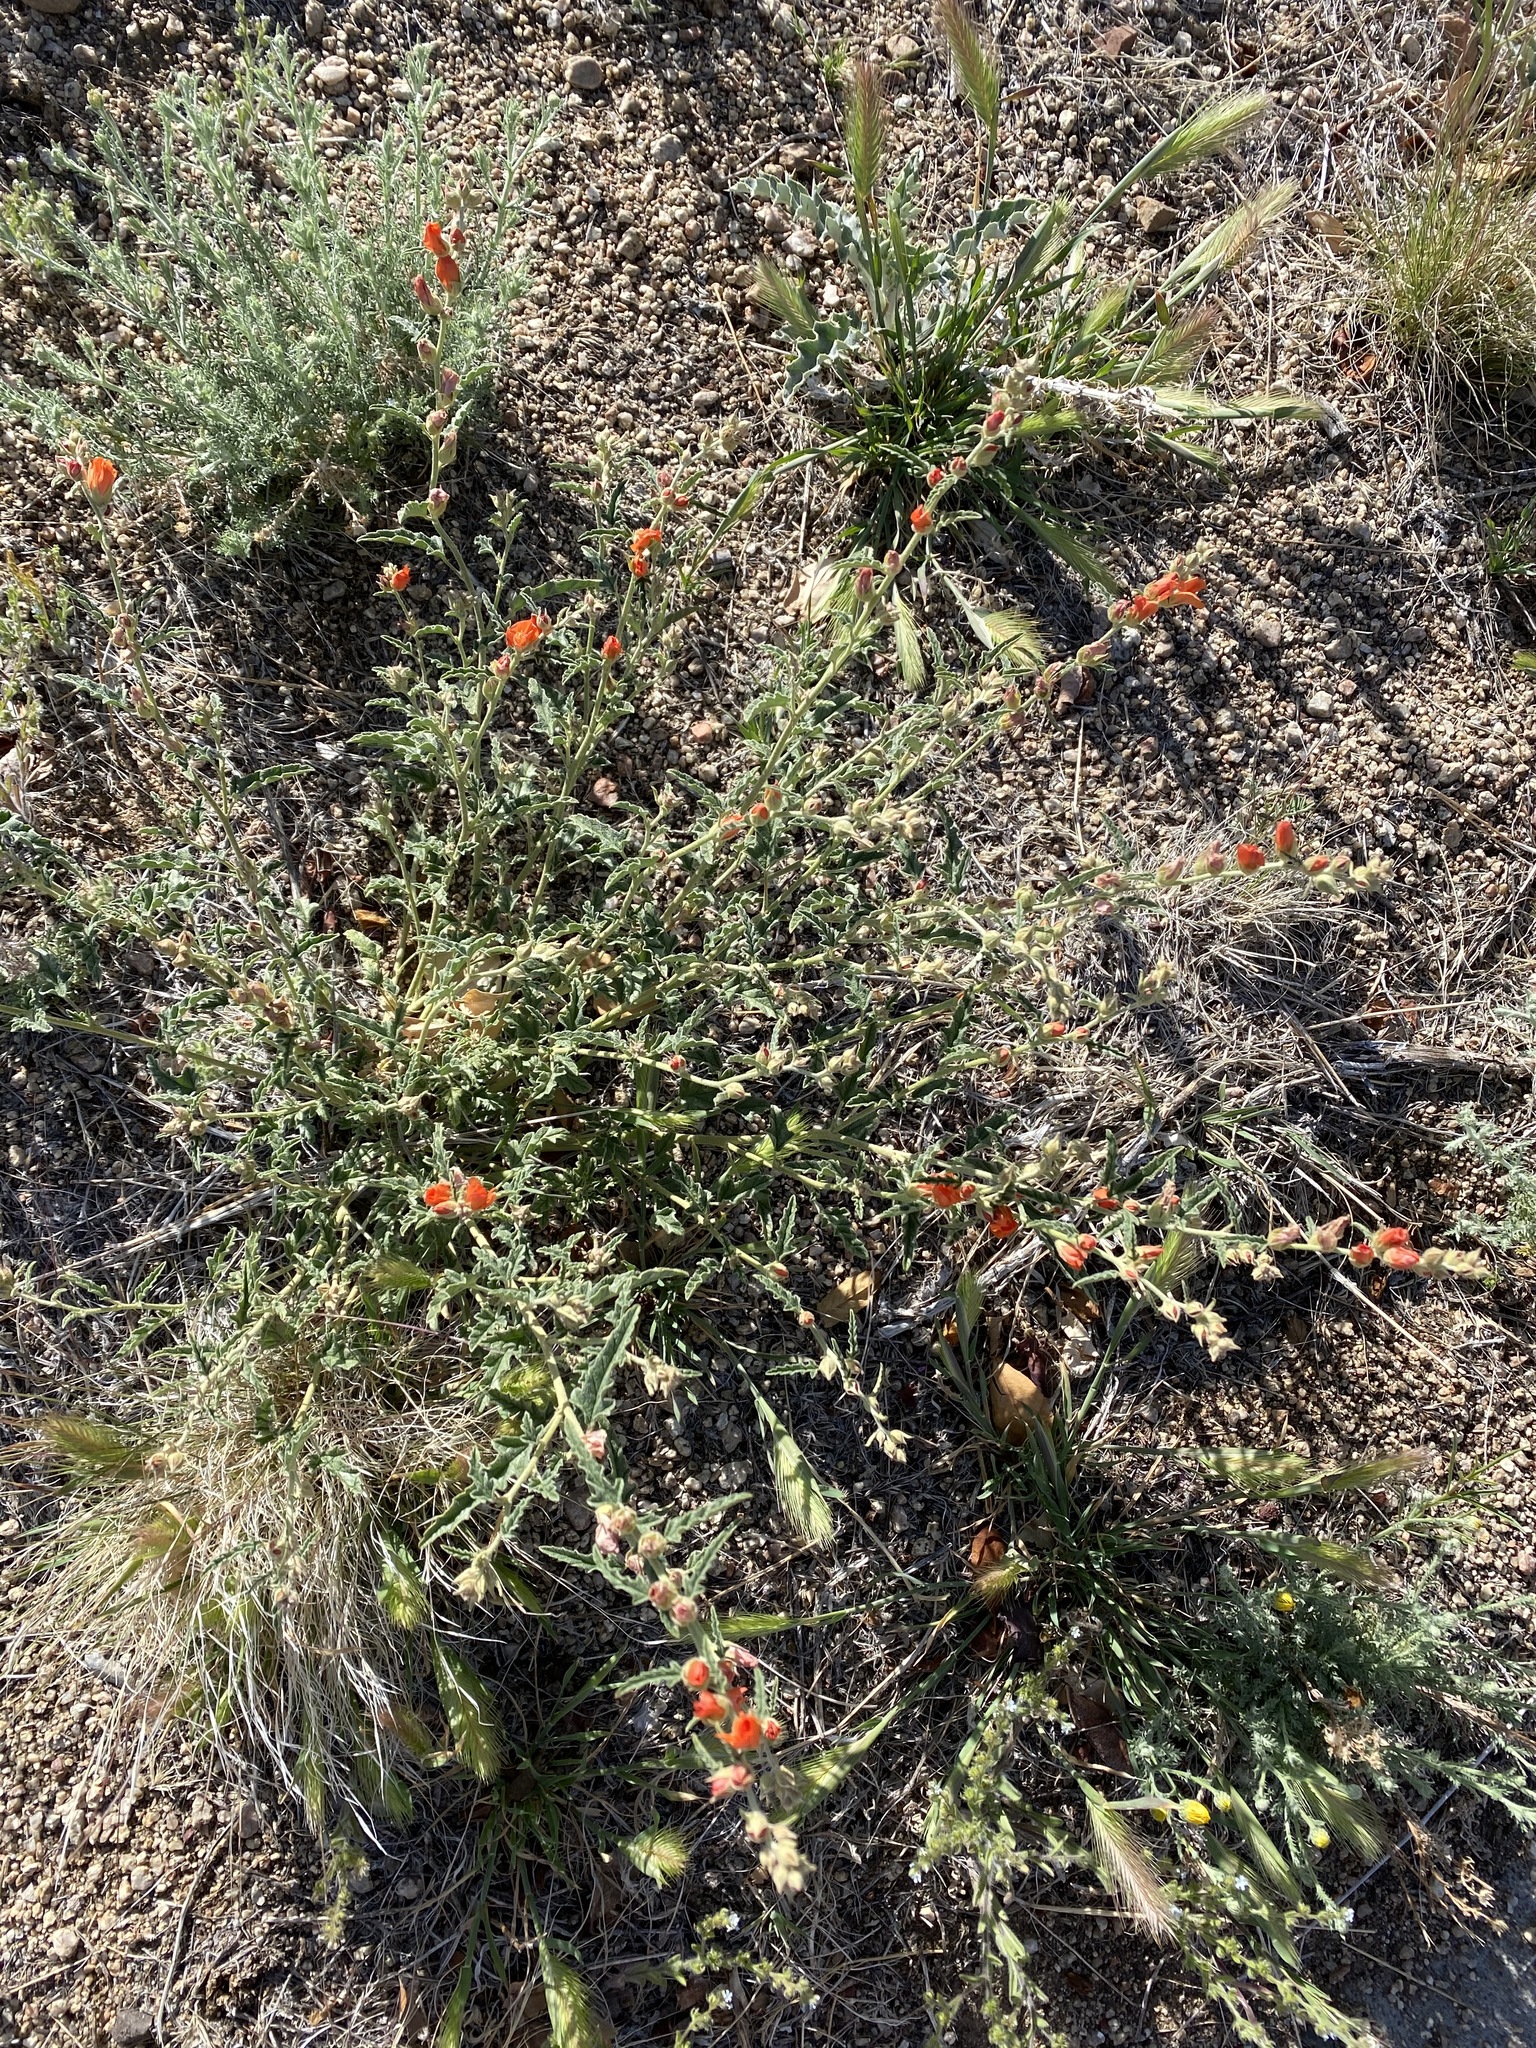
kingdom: Plantae
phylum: Tracheophyta
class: Magnoliopsida
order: Malvales
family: Malvaceae
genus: Sphaeralcea
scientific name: Sphaeralcea hastulata
